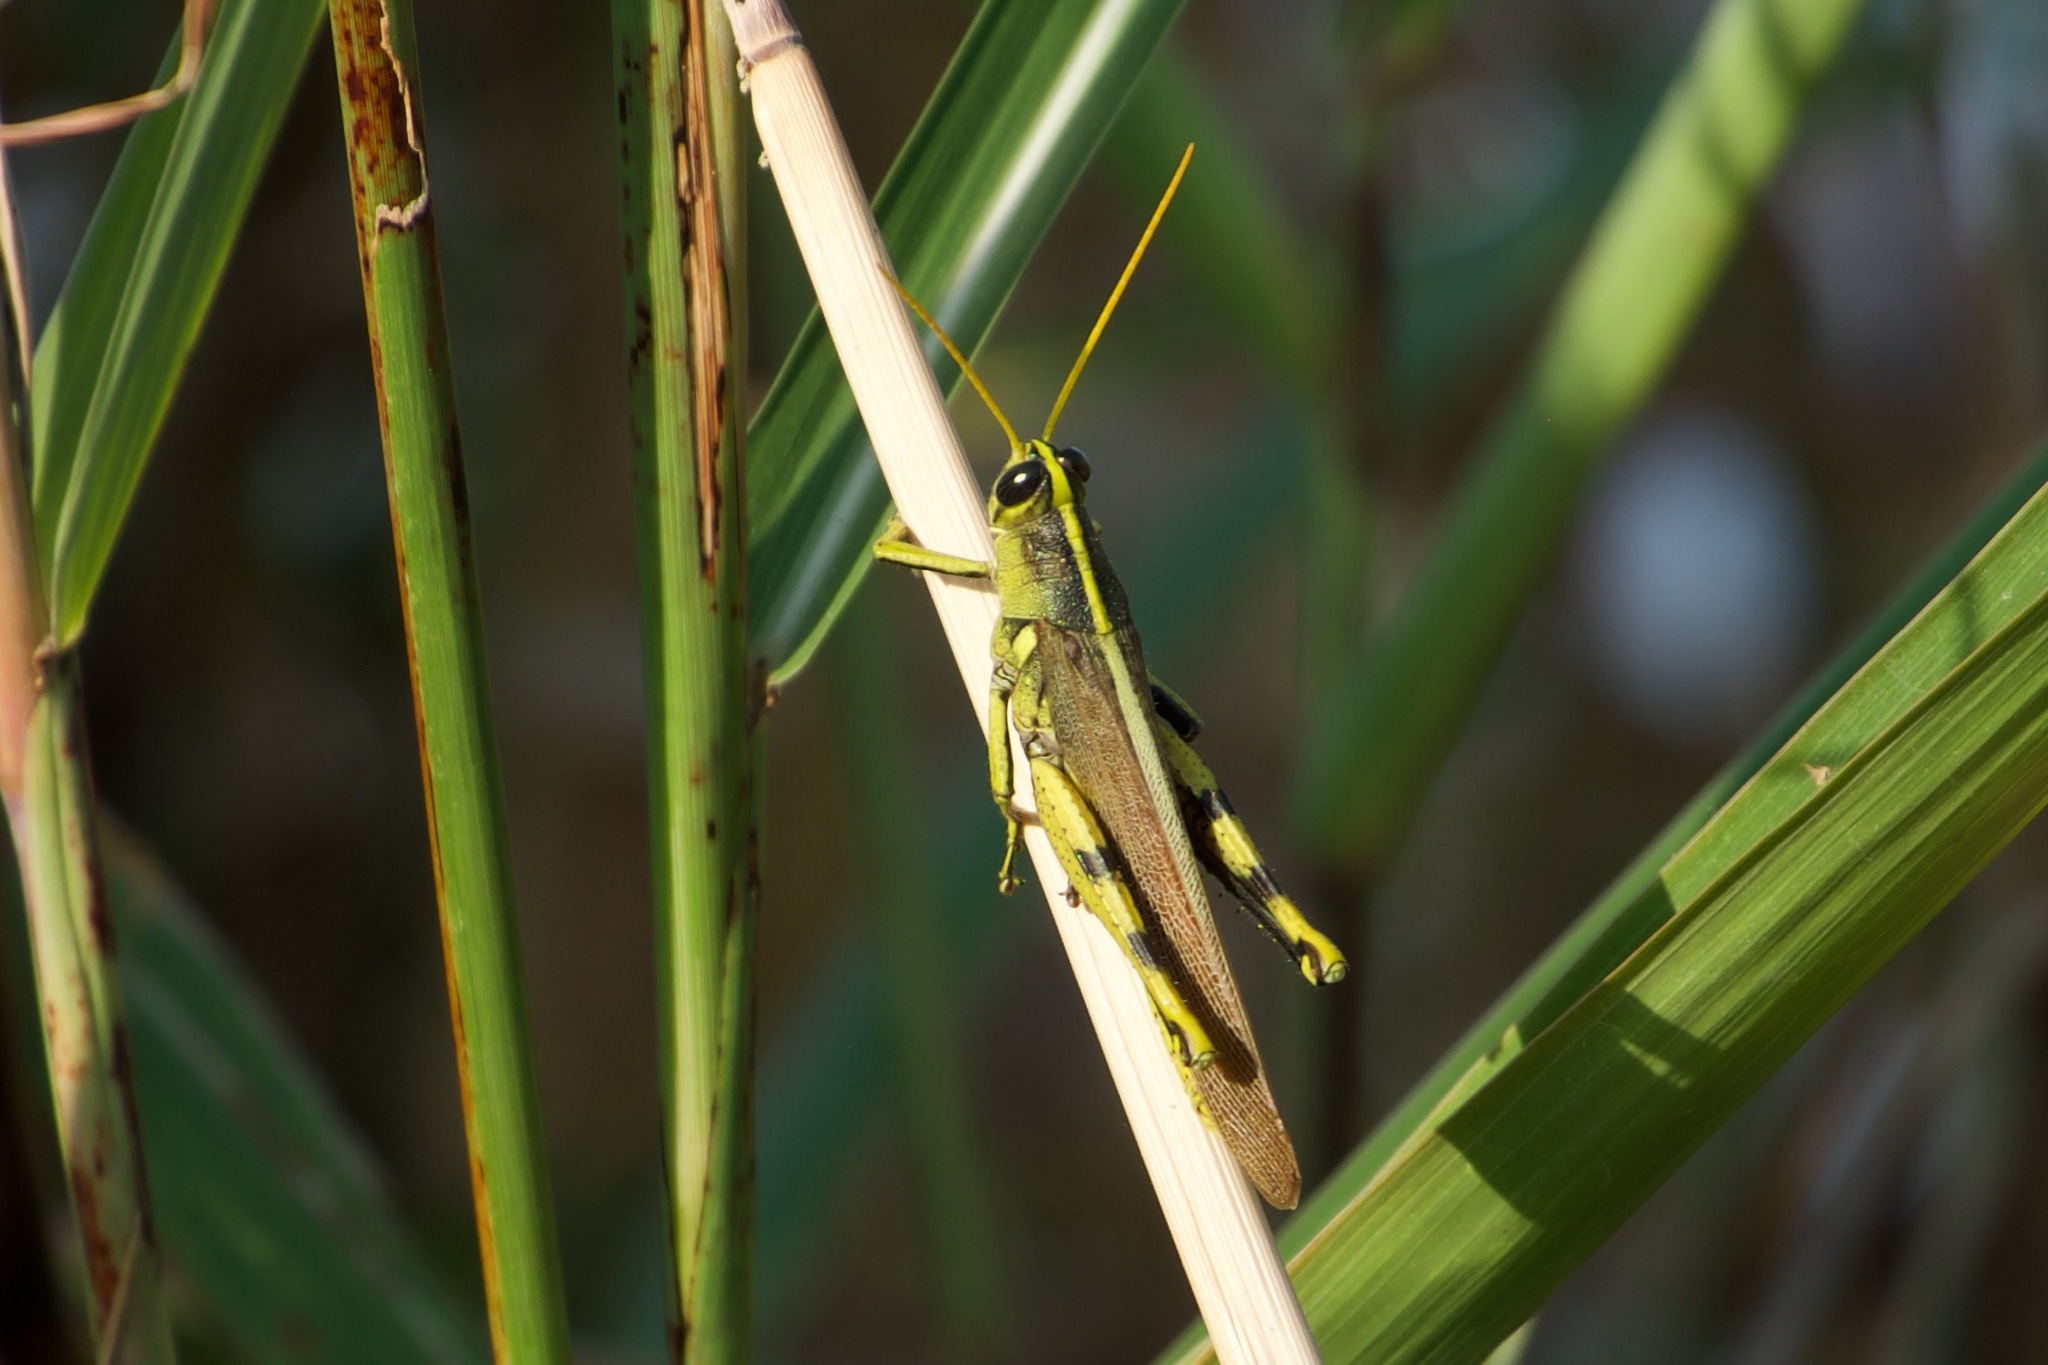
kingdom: Animalia
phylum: Arthropoda
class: Insecta
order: Orthoptera
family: Acrididae
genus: Schistocerca
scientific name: Schistocerca obscura
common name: Obscure bird grasshopper
